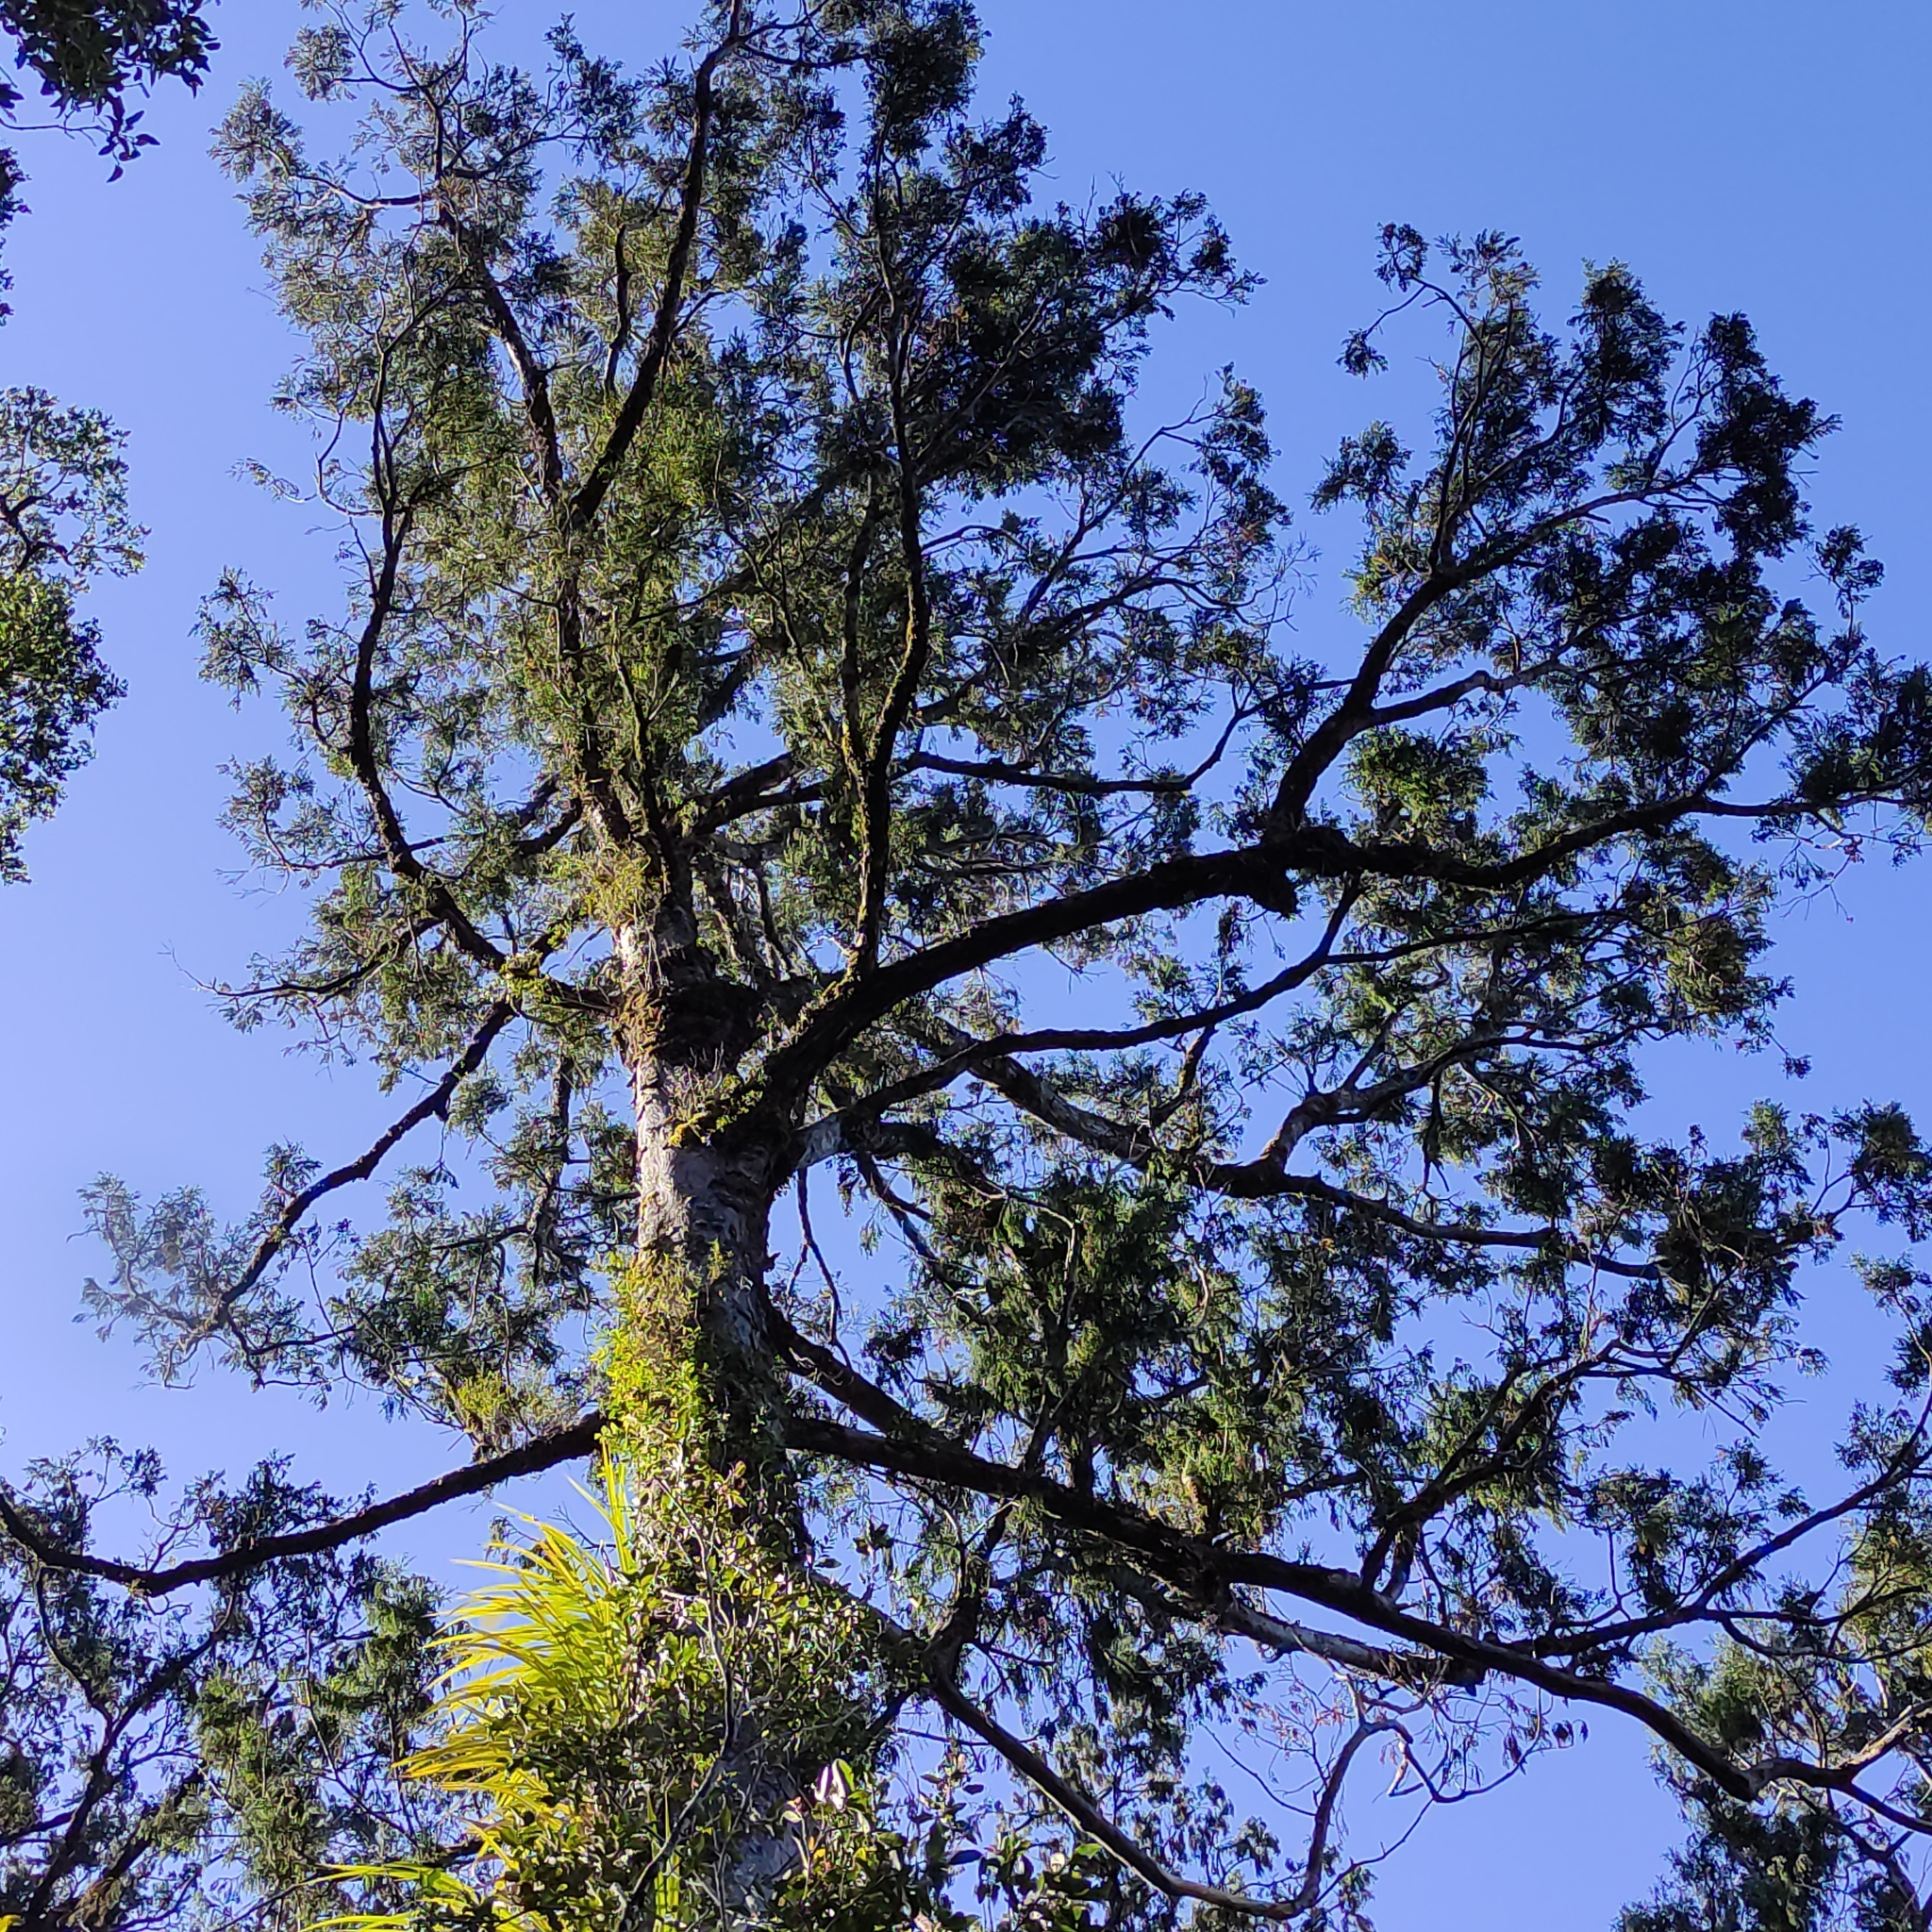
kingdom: Plantae
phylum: Tracheophyta
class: Pinopsida
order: Pinales
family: Podocarpaceae
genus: Dacrydium
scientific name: Dacrydium cupressinum
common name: Red pine
